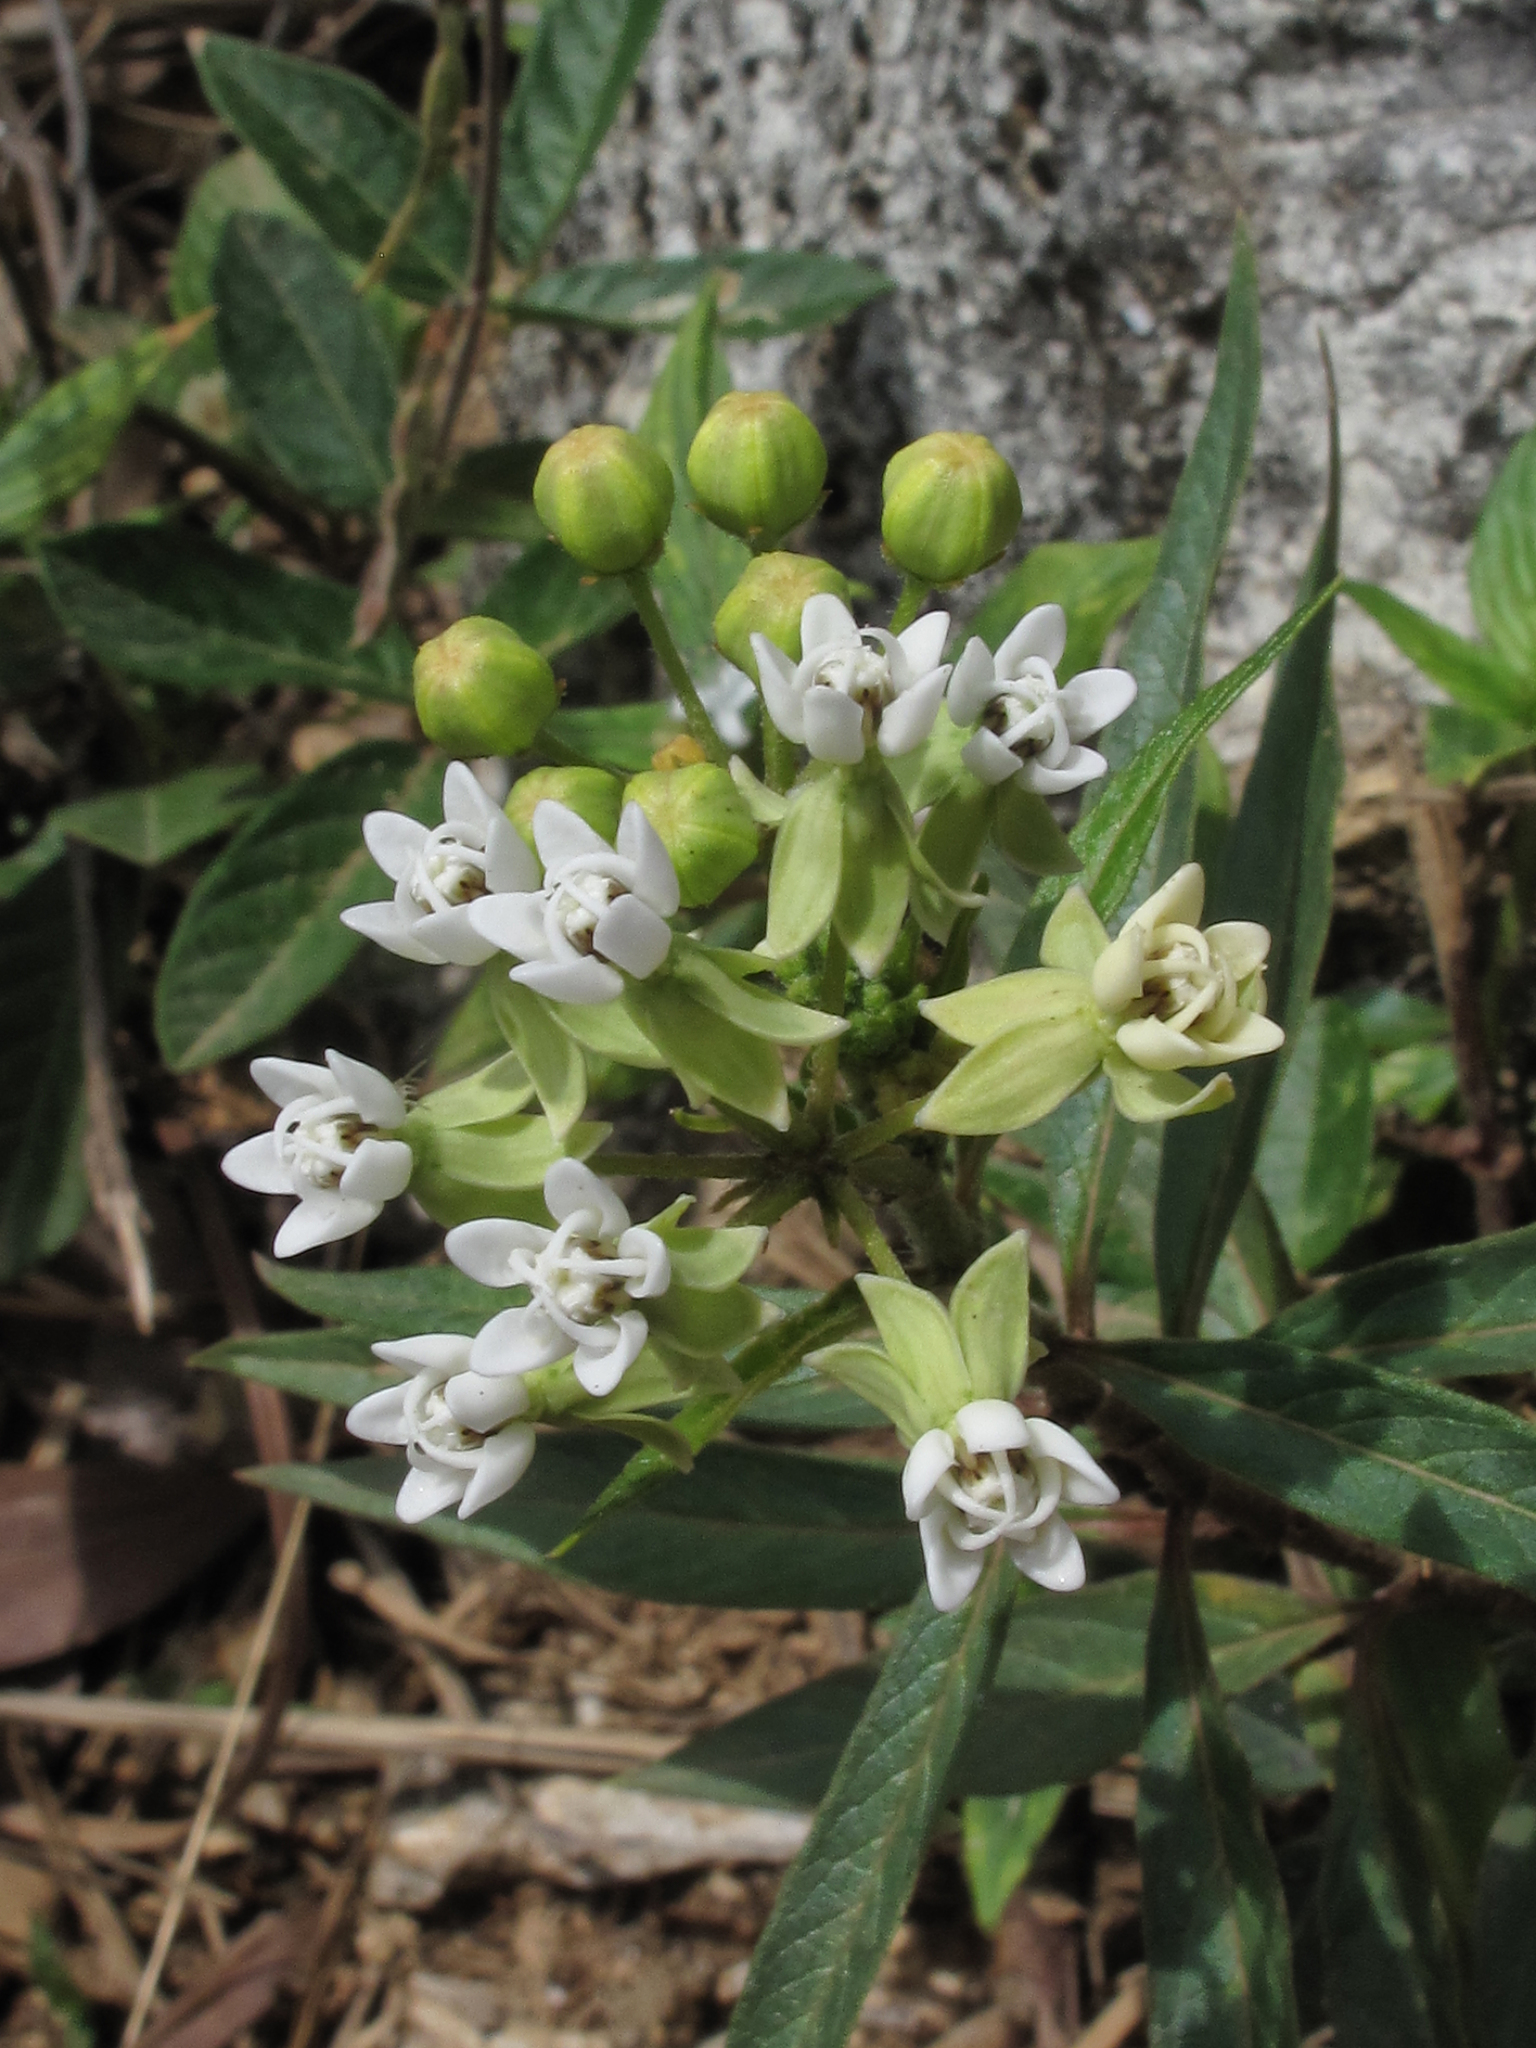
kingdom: Plantae
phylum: Tracheophyta
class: Magnoliopsida
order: Gentianales
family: Apocynaceae
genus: Asclepias
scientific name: Asclepias nivea
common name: Ipecacuanha
